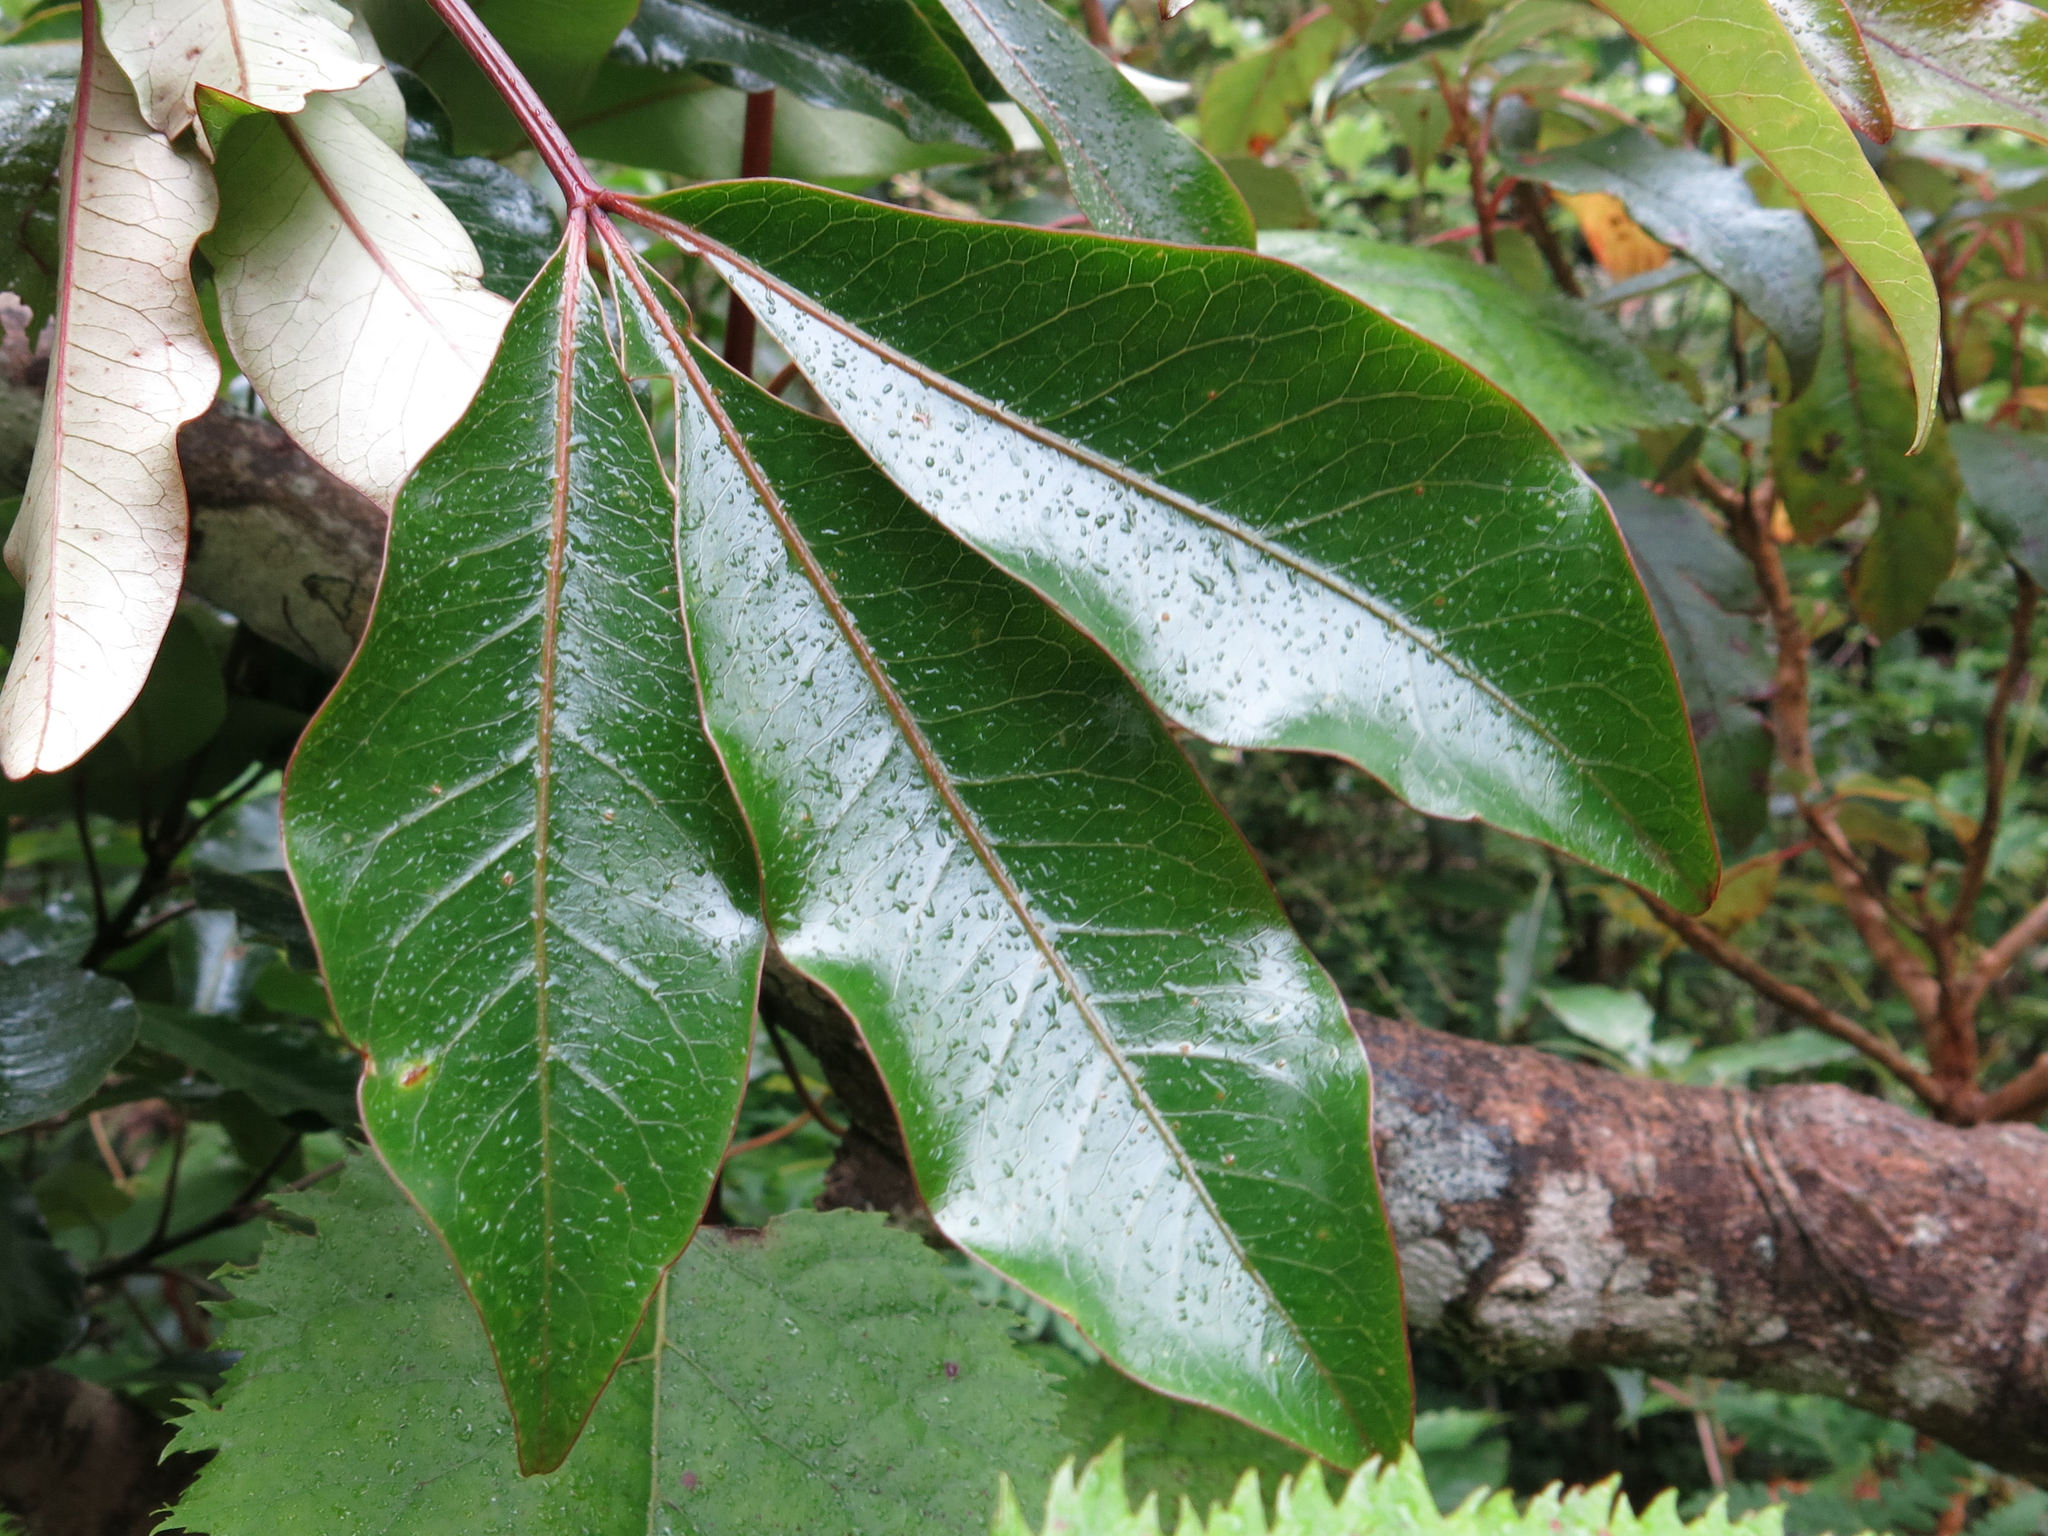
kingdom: Plantae
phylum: Tracheophyta
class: Magnoliopsida
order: Apiales
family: Araliaceae
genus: Raukaua
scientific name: Raukaua edgerleyi
